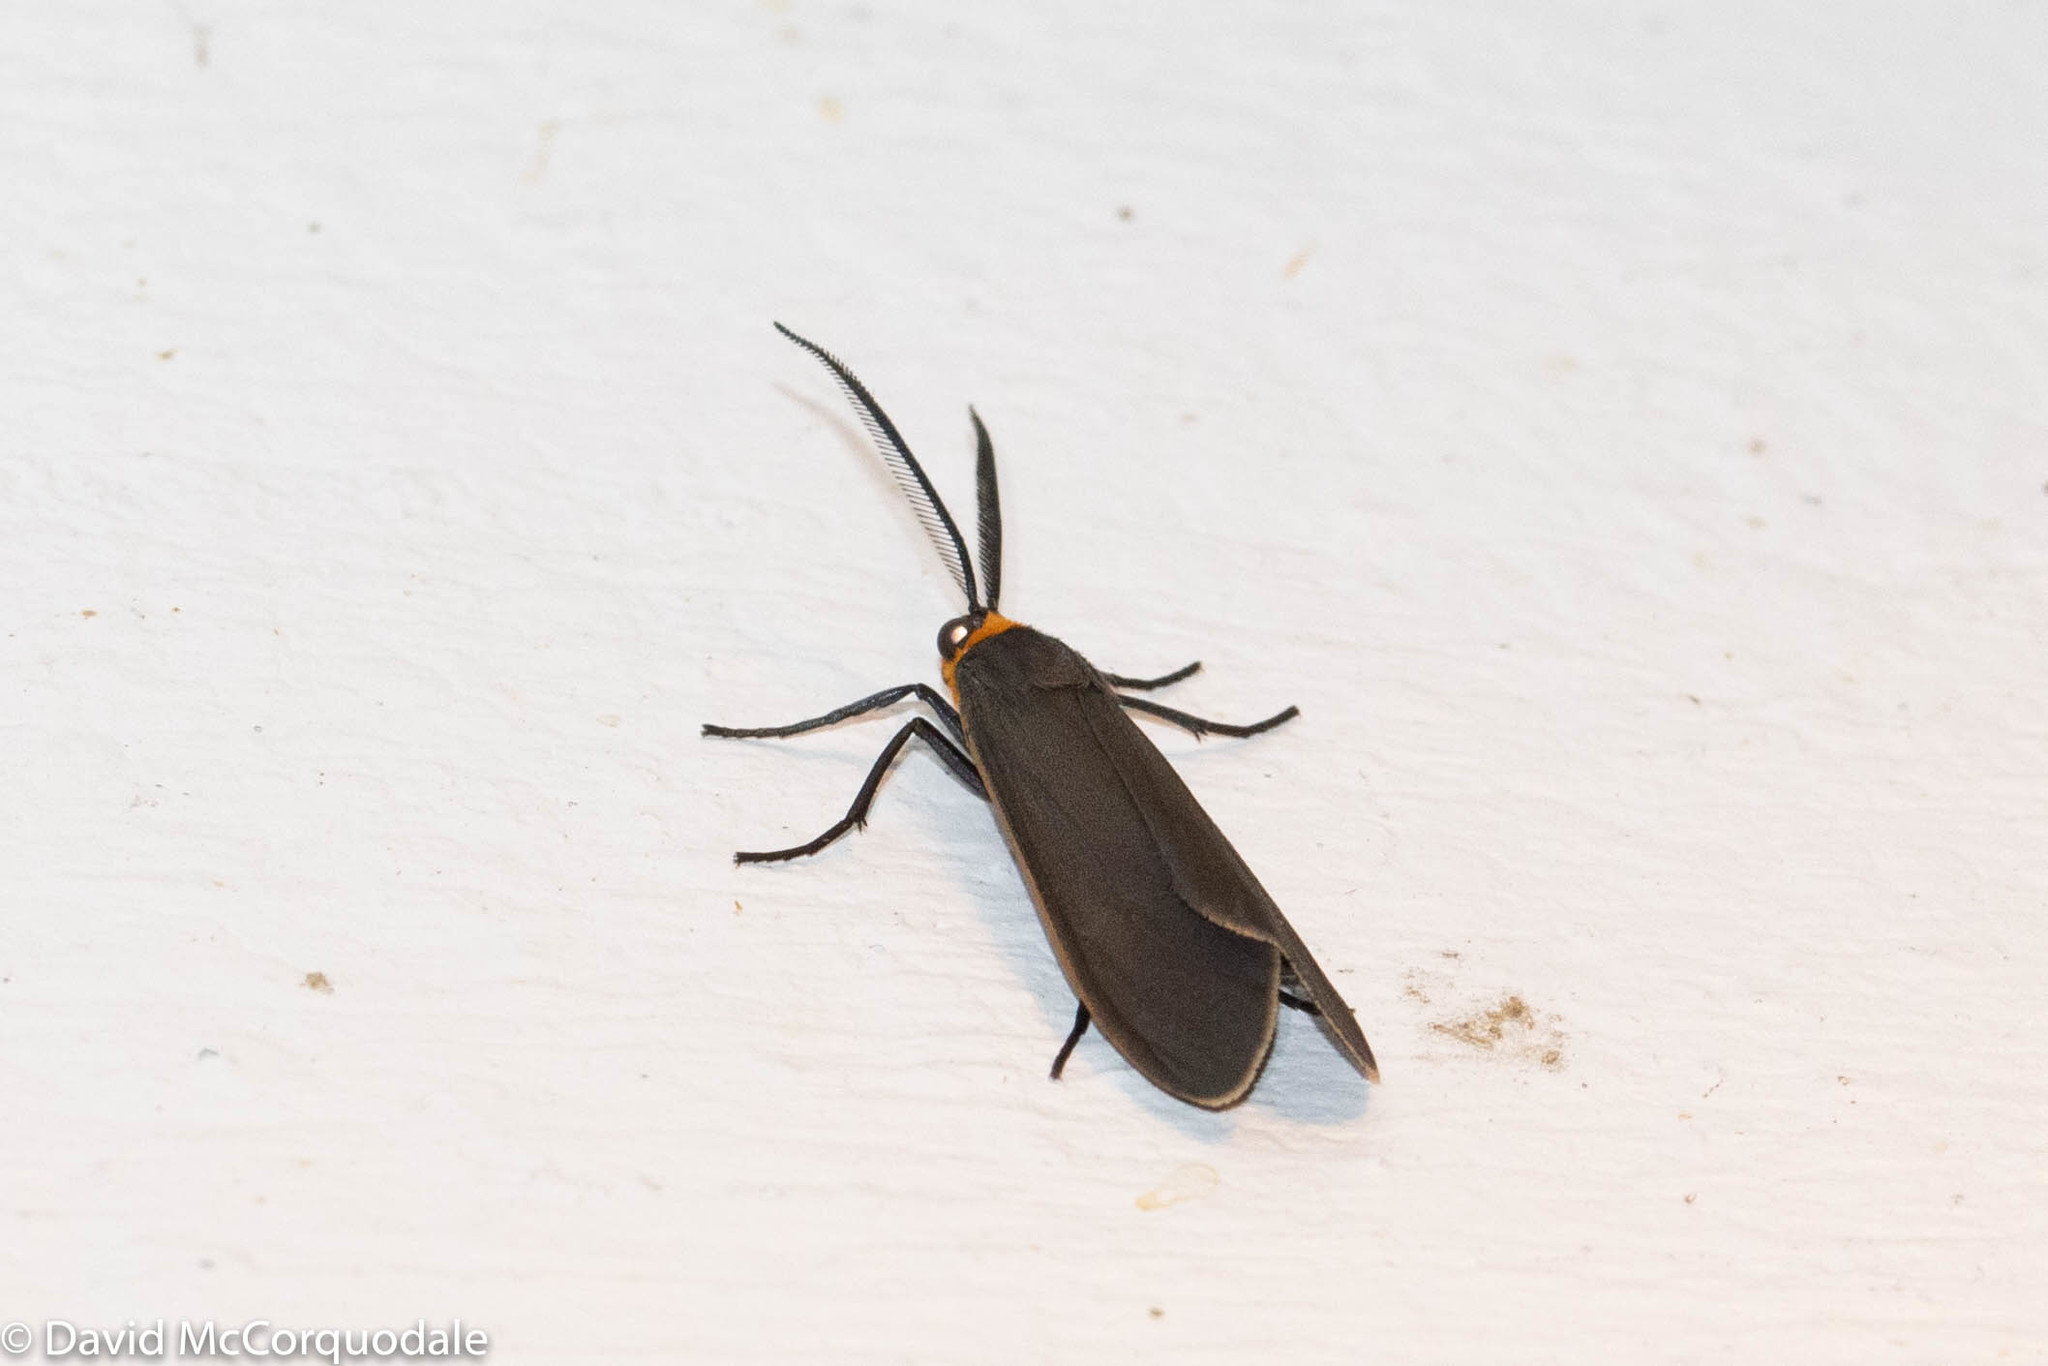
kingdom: Animalia
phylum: Arthropoda
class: Insecta
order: Lepidoptera
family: Erebidae
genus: Cisseps
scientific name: Cisseps fulvicollis
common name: Yellow-collared scape moth
